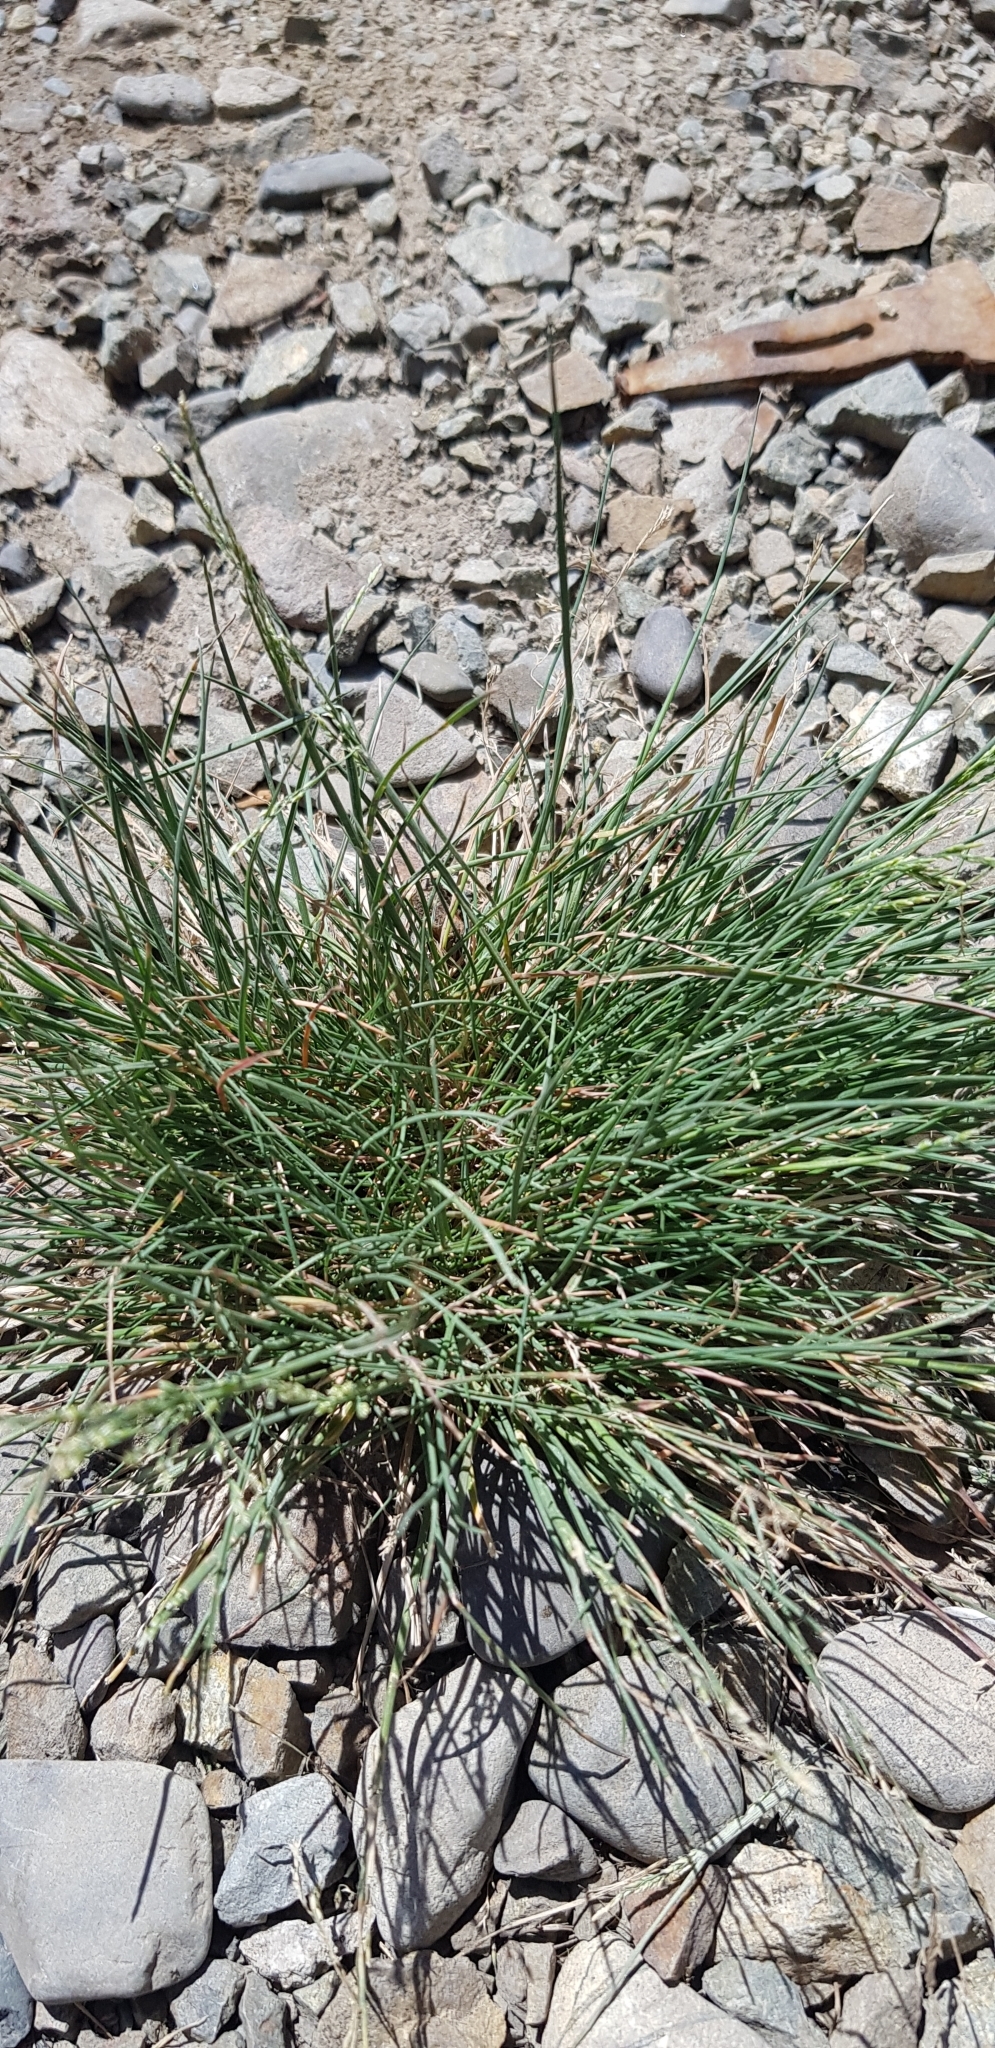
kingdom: Plantae
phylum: Tracheophyta
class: Liliopsida
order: Poales
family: Poaceae
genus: Puccinellia
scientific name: Puccinellia distans
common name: Weeping alkaligrass
